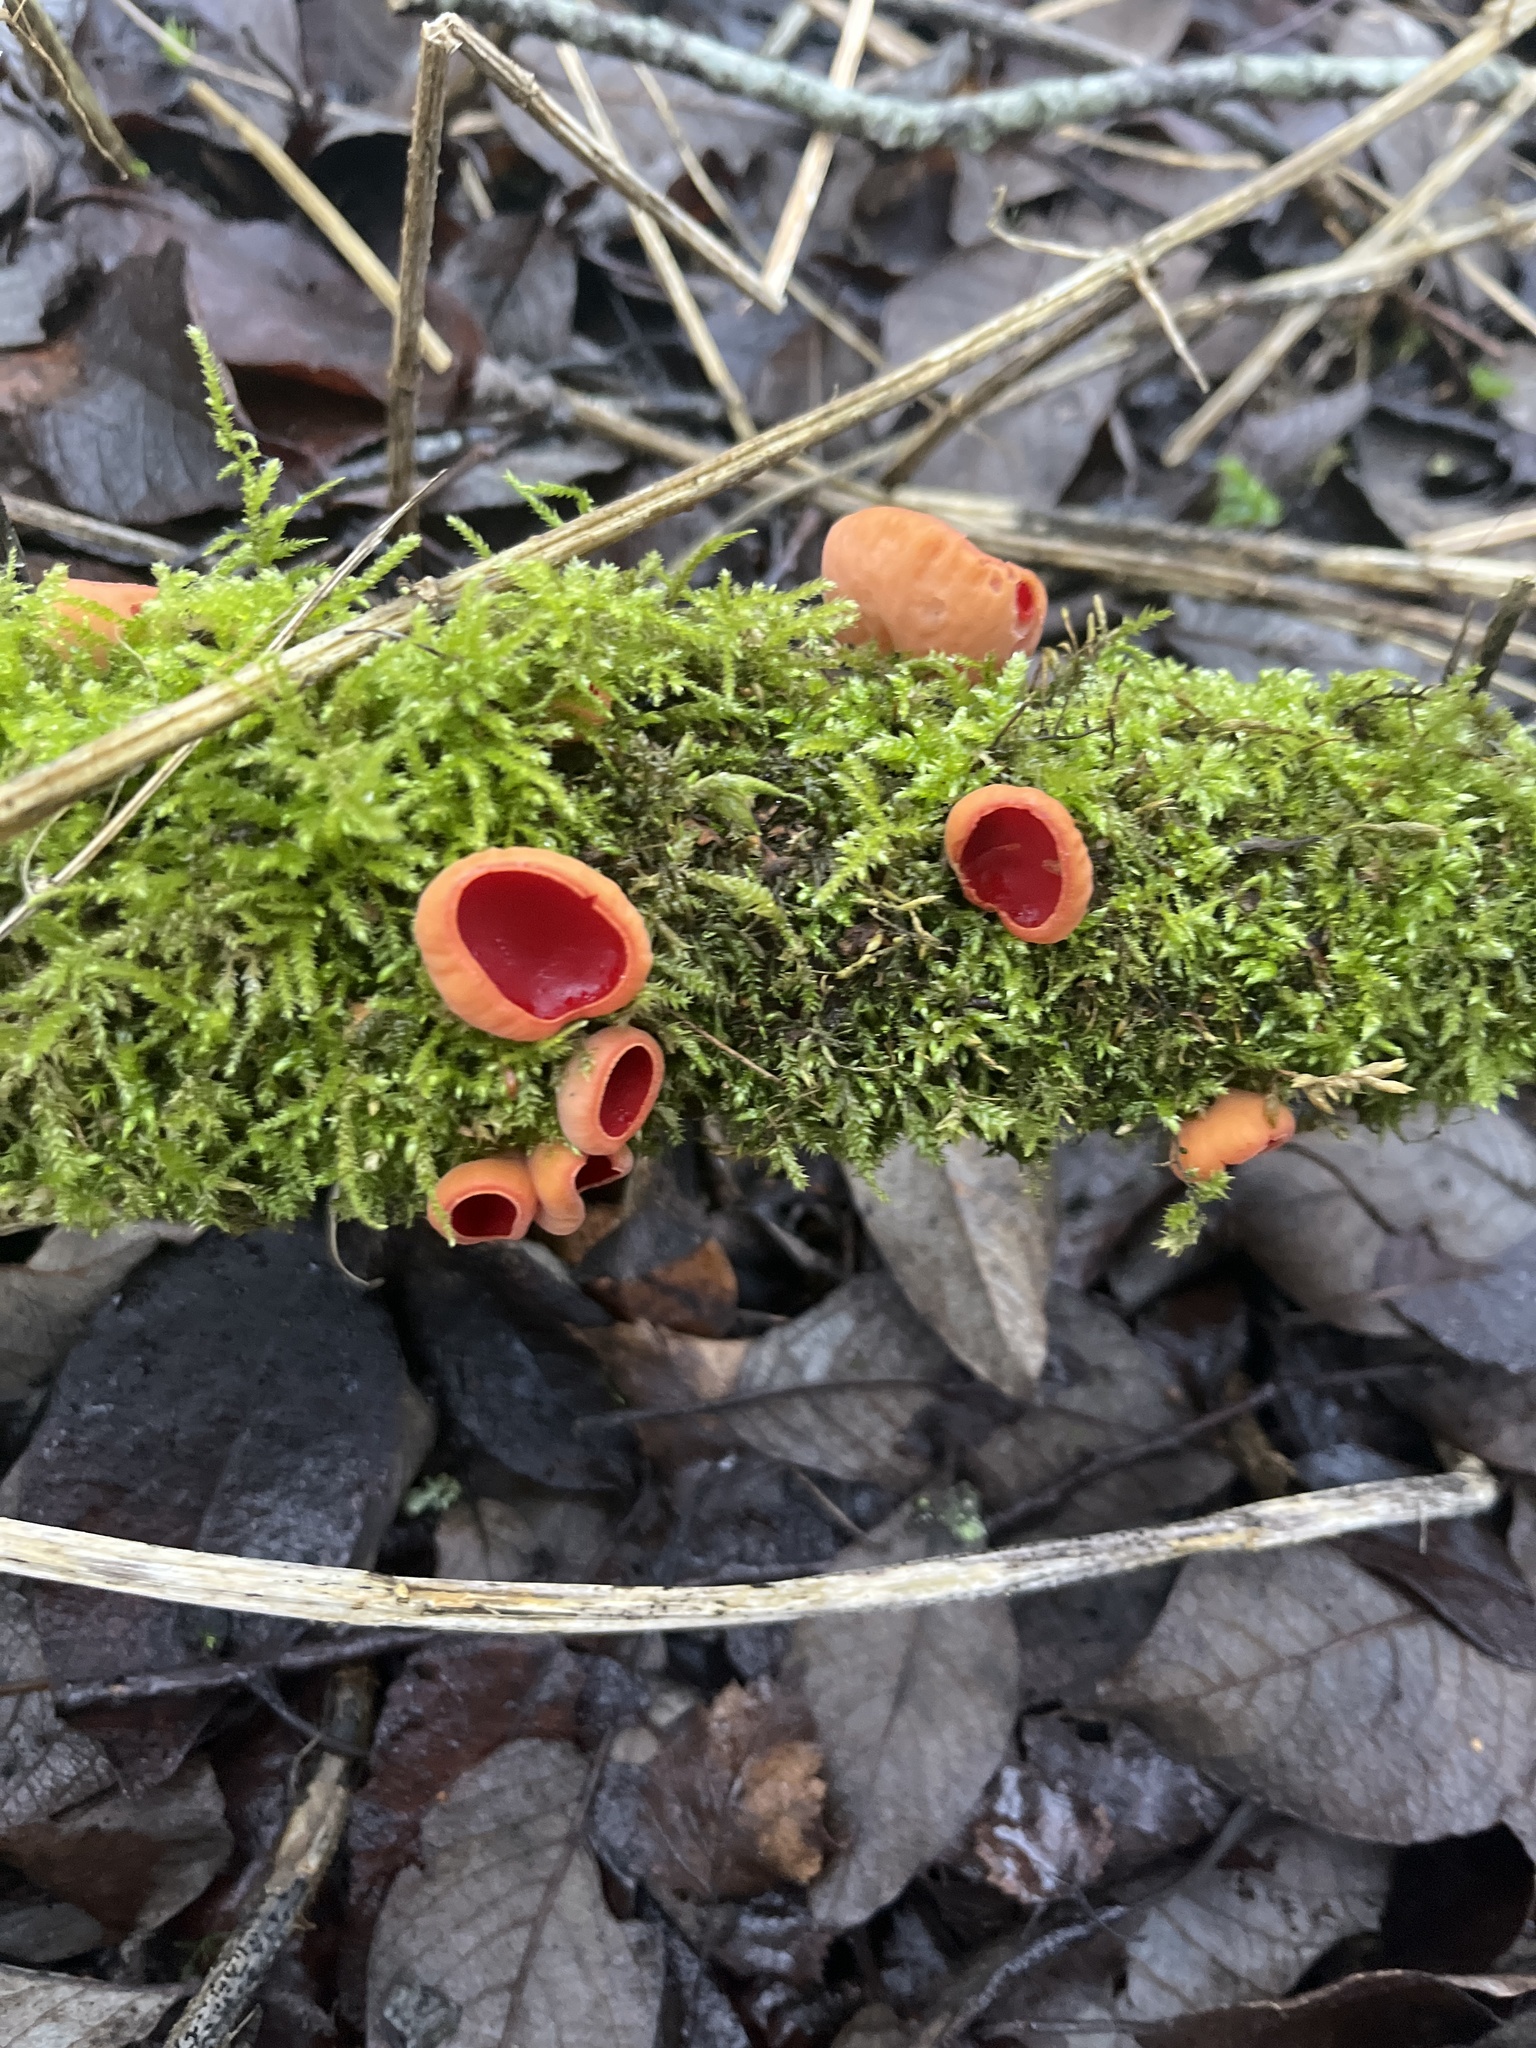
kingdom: Fungi
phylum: Ascomycota
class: Pezizomycetes
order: Pezizales
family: Sarcoscyphaceae
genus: Sarcoscypha
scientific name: Sarcoscypha
